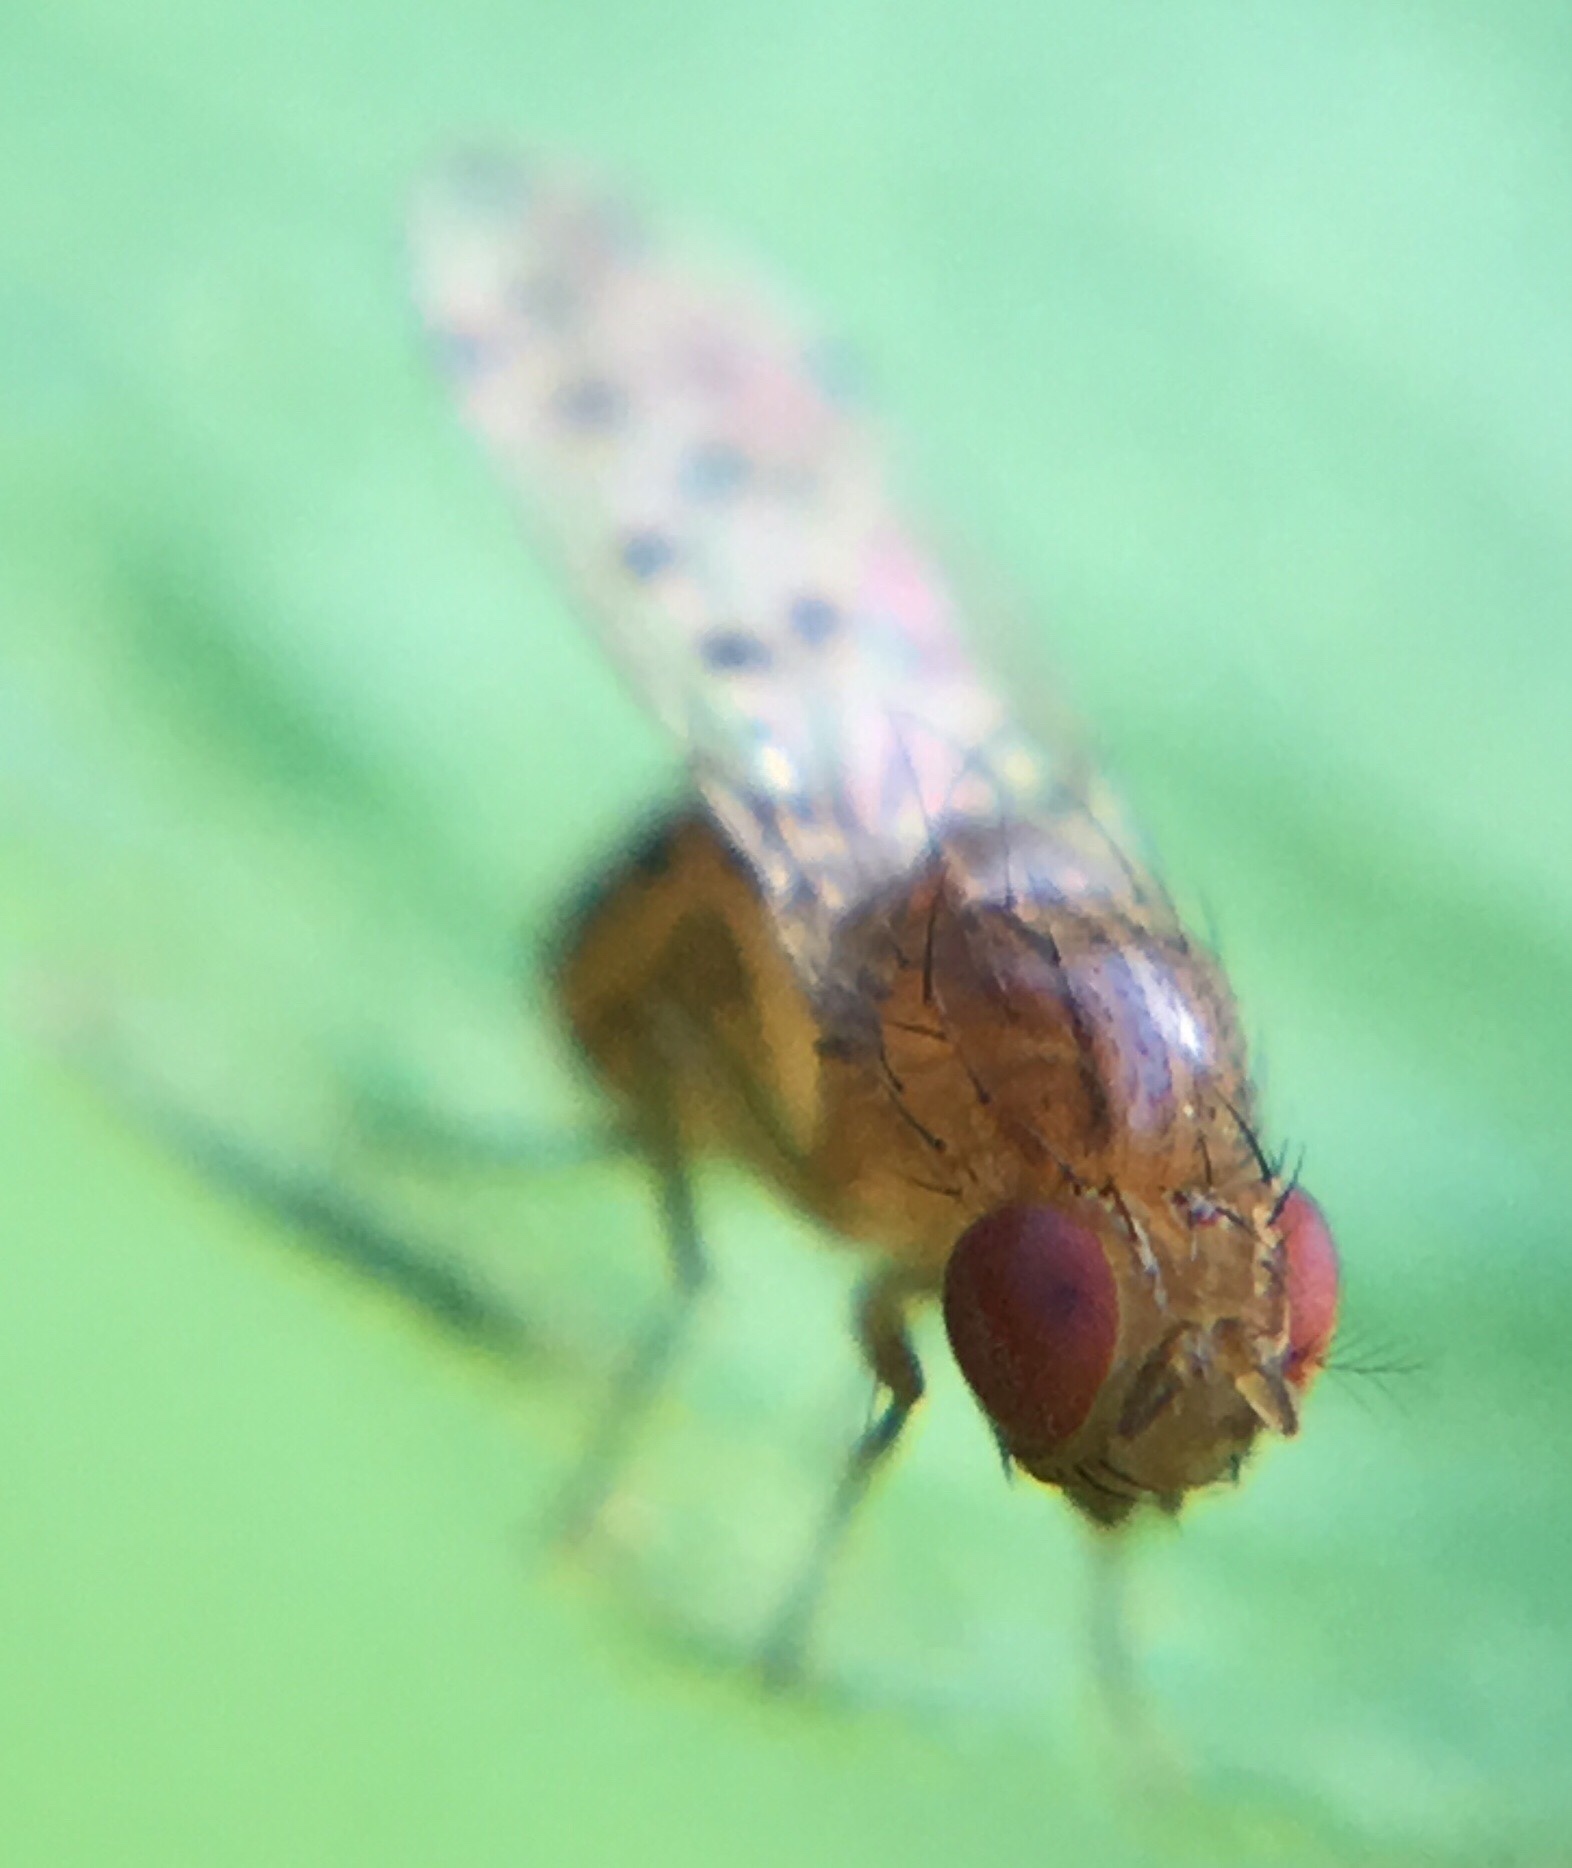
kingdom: Animalia
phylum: Arthropoda
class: Insecta
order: Diptera
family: Drosophilidae
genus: Drosophila
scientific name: Drosophila guttifera
